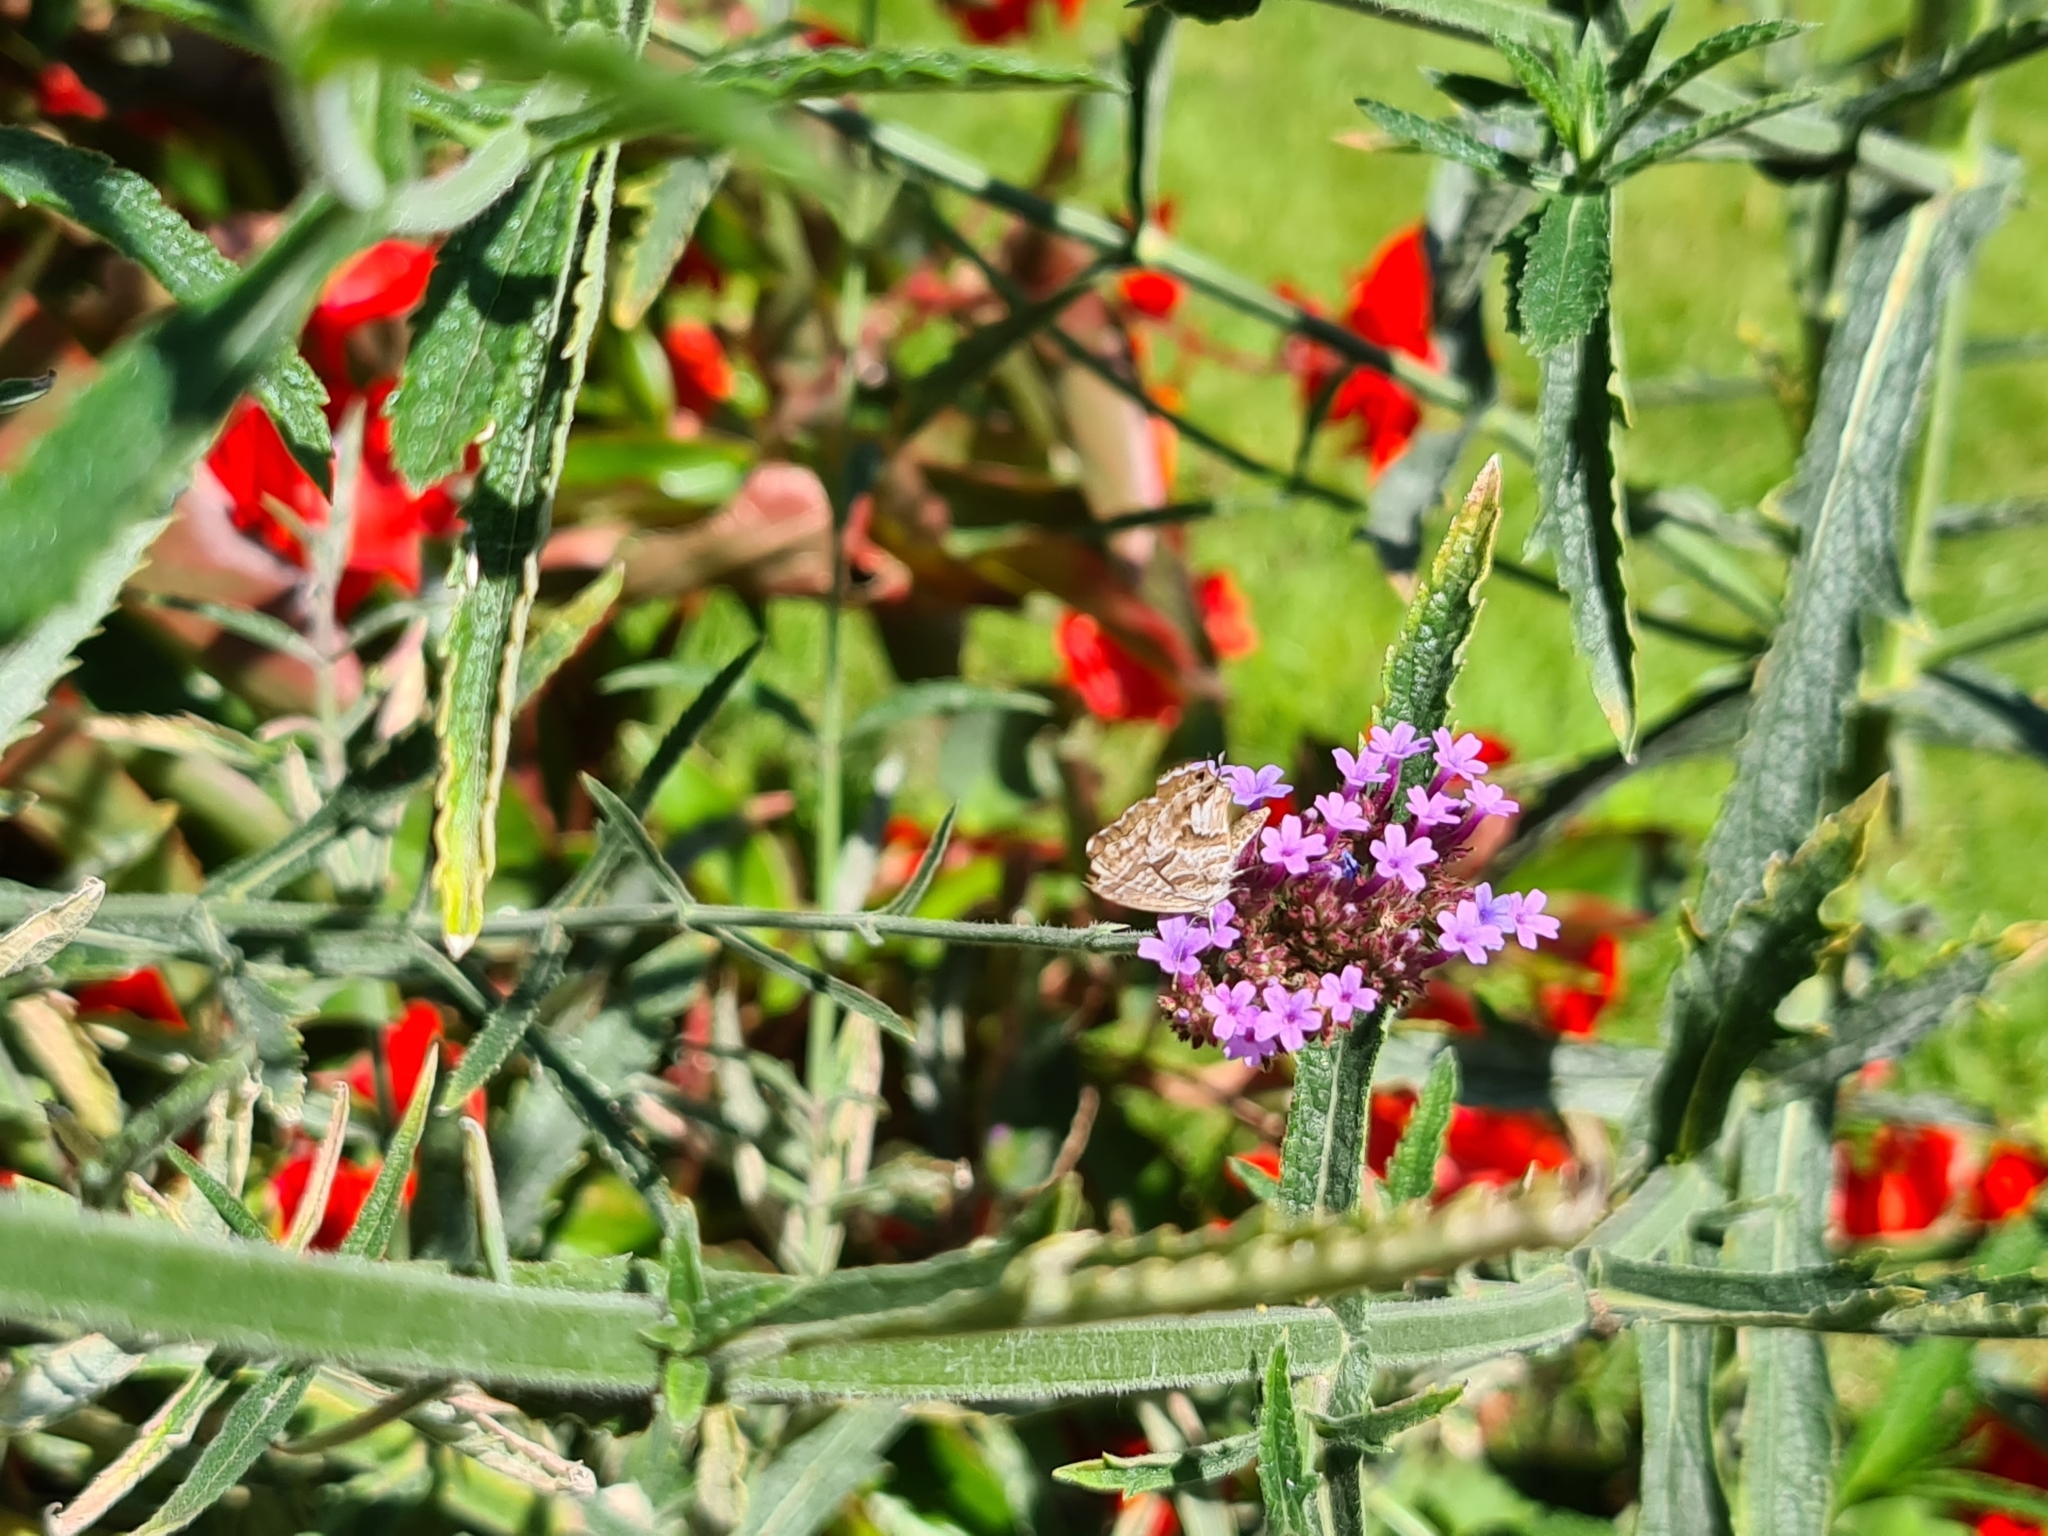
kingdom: Animalia
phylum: Arthropoda
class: Insecta
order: Lepidoptera
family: Lycaenidae
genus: Cacyreus
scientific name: Cacyreus marshalli
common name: Geranium bronze
